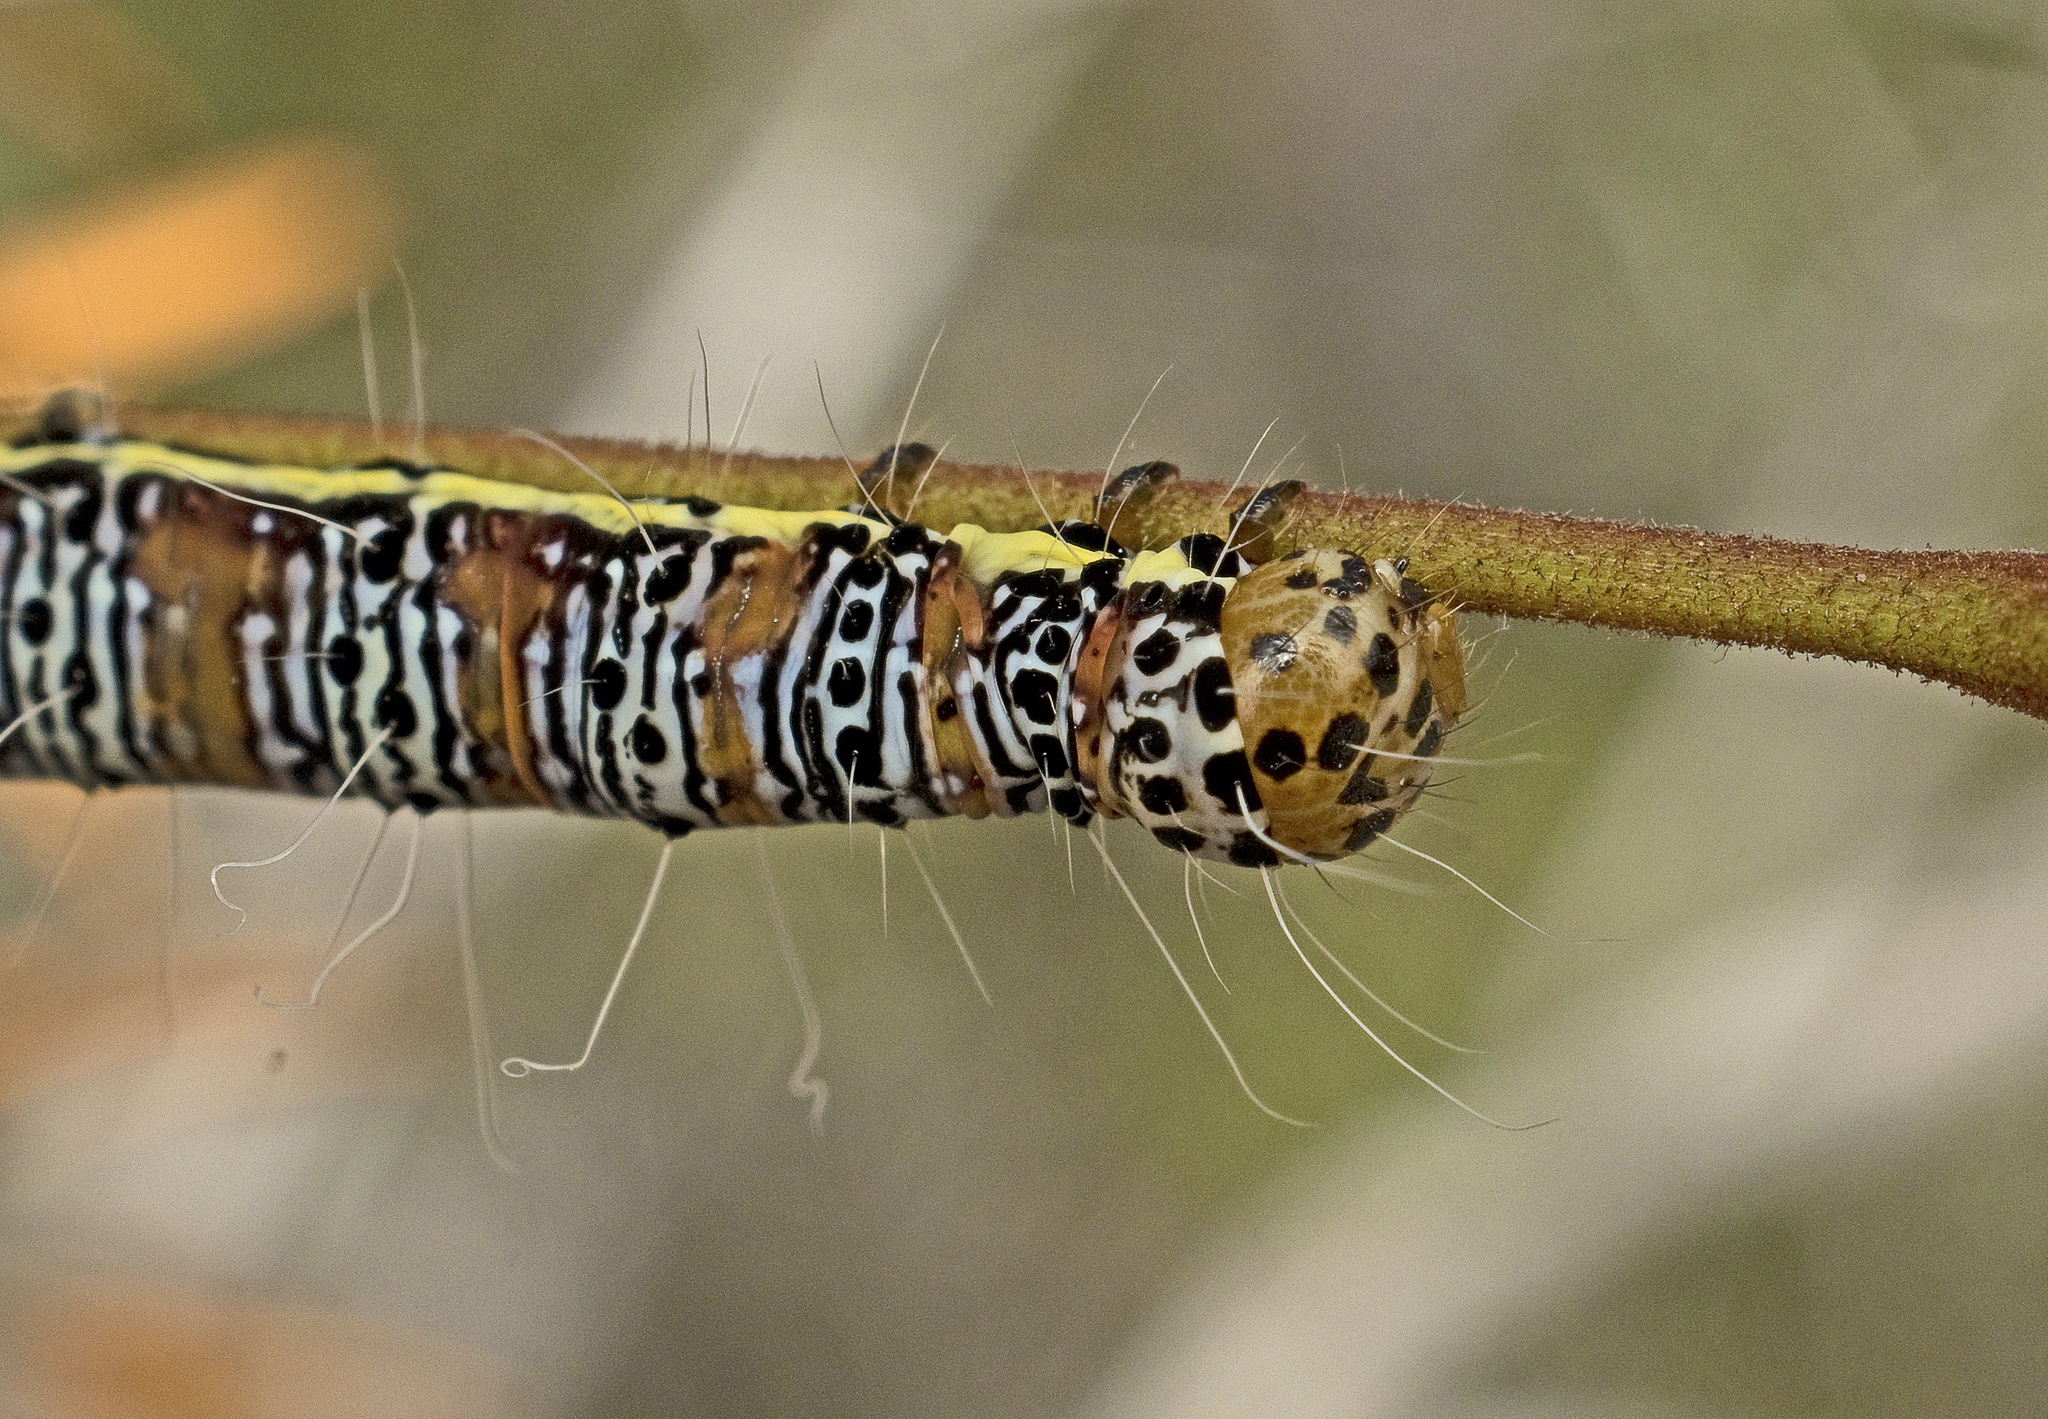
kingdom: Animalia
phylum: Arthropoda
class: Insecta
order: Lepidoptera
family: Noctuidae
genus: Hecatesia
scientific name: Hecatesia fenestrata
